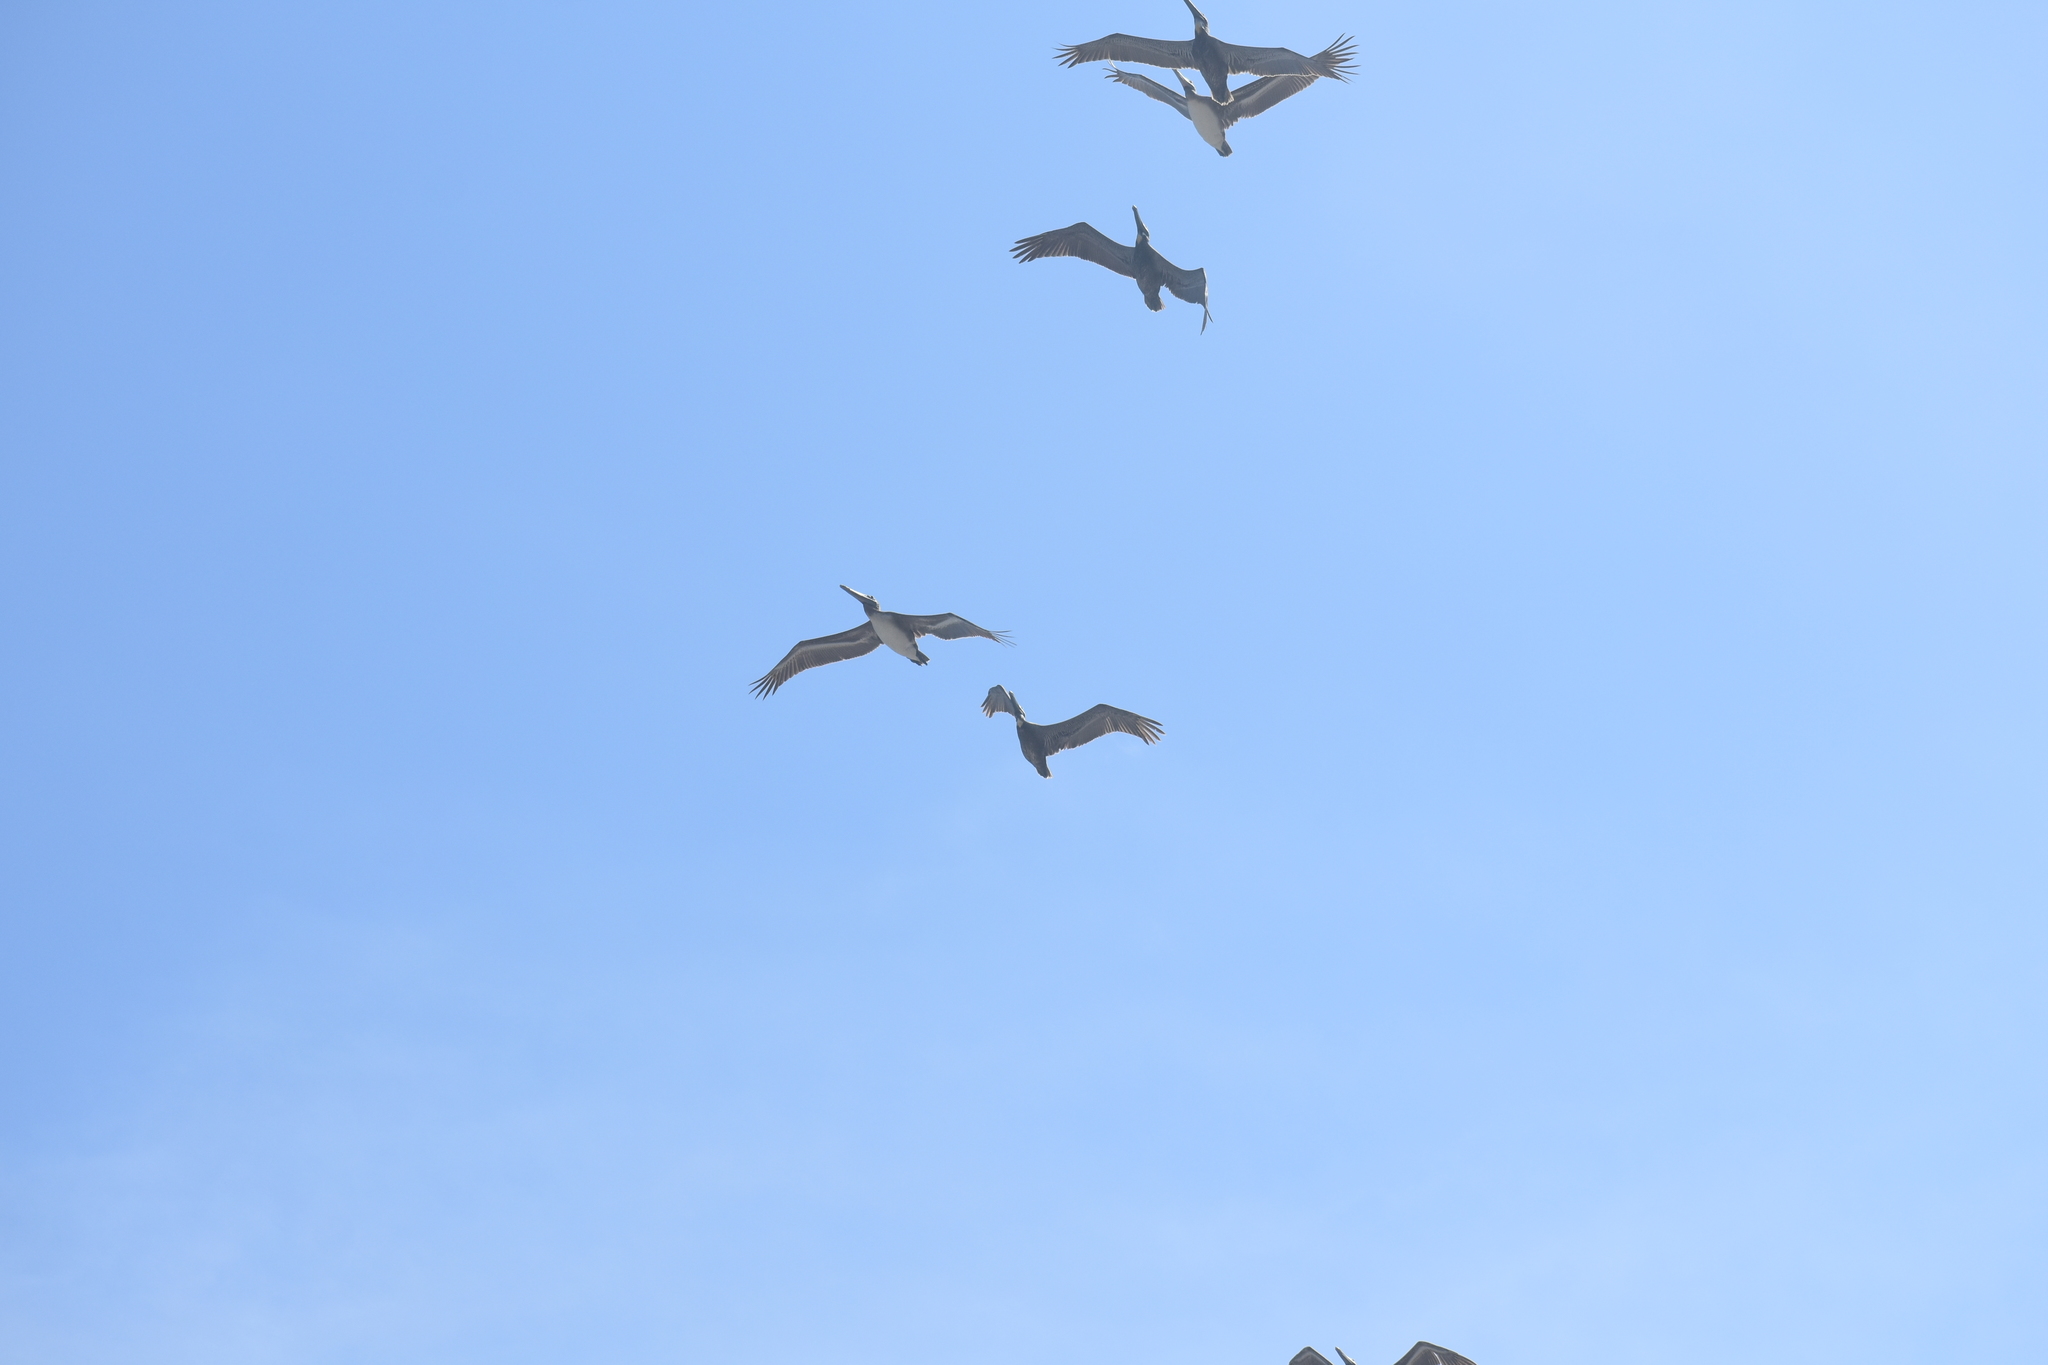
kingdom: Animalia
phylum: Chordata
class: Aves
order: Pelecaniformes
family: Pelecanidae
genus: Pelecanus
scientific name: Pelecanus occidentalis
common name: Brown pelican
